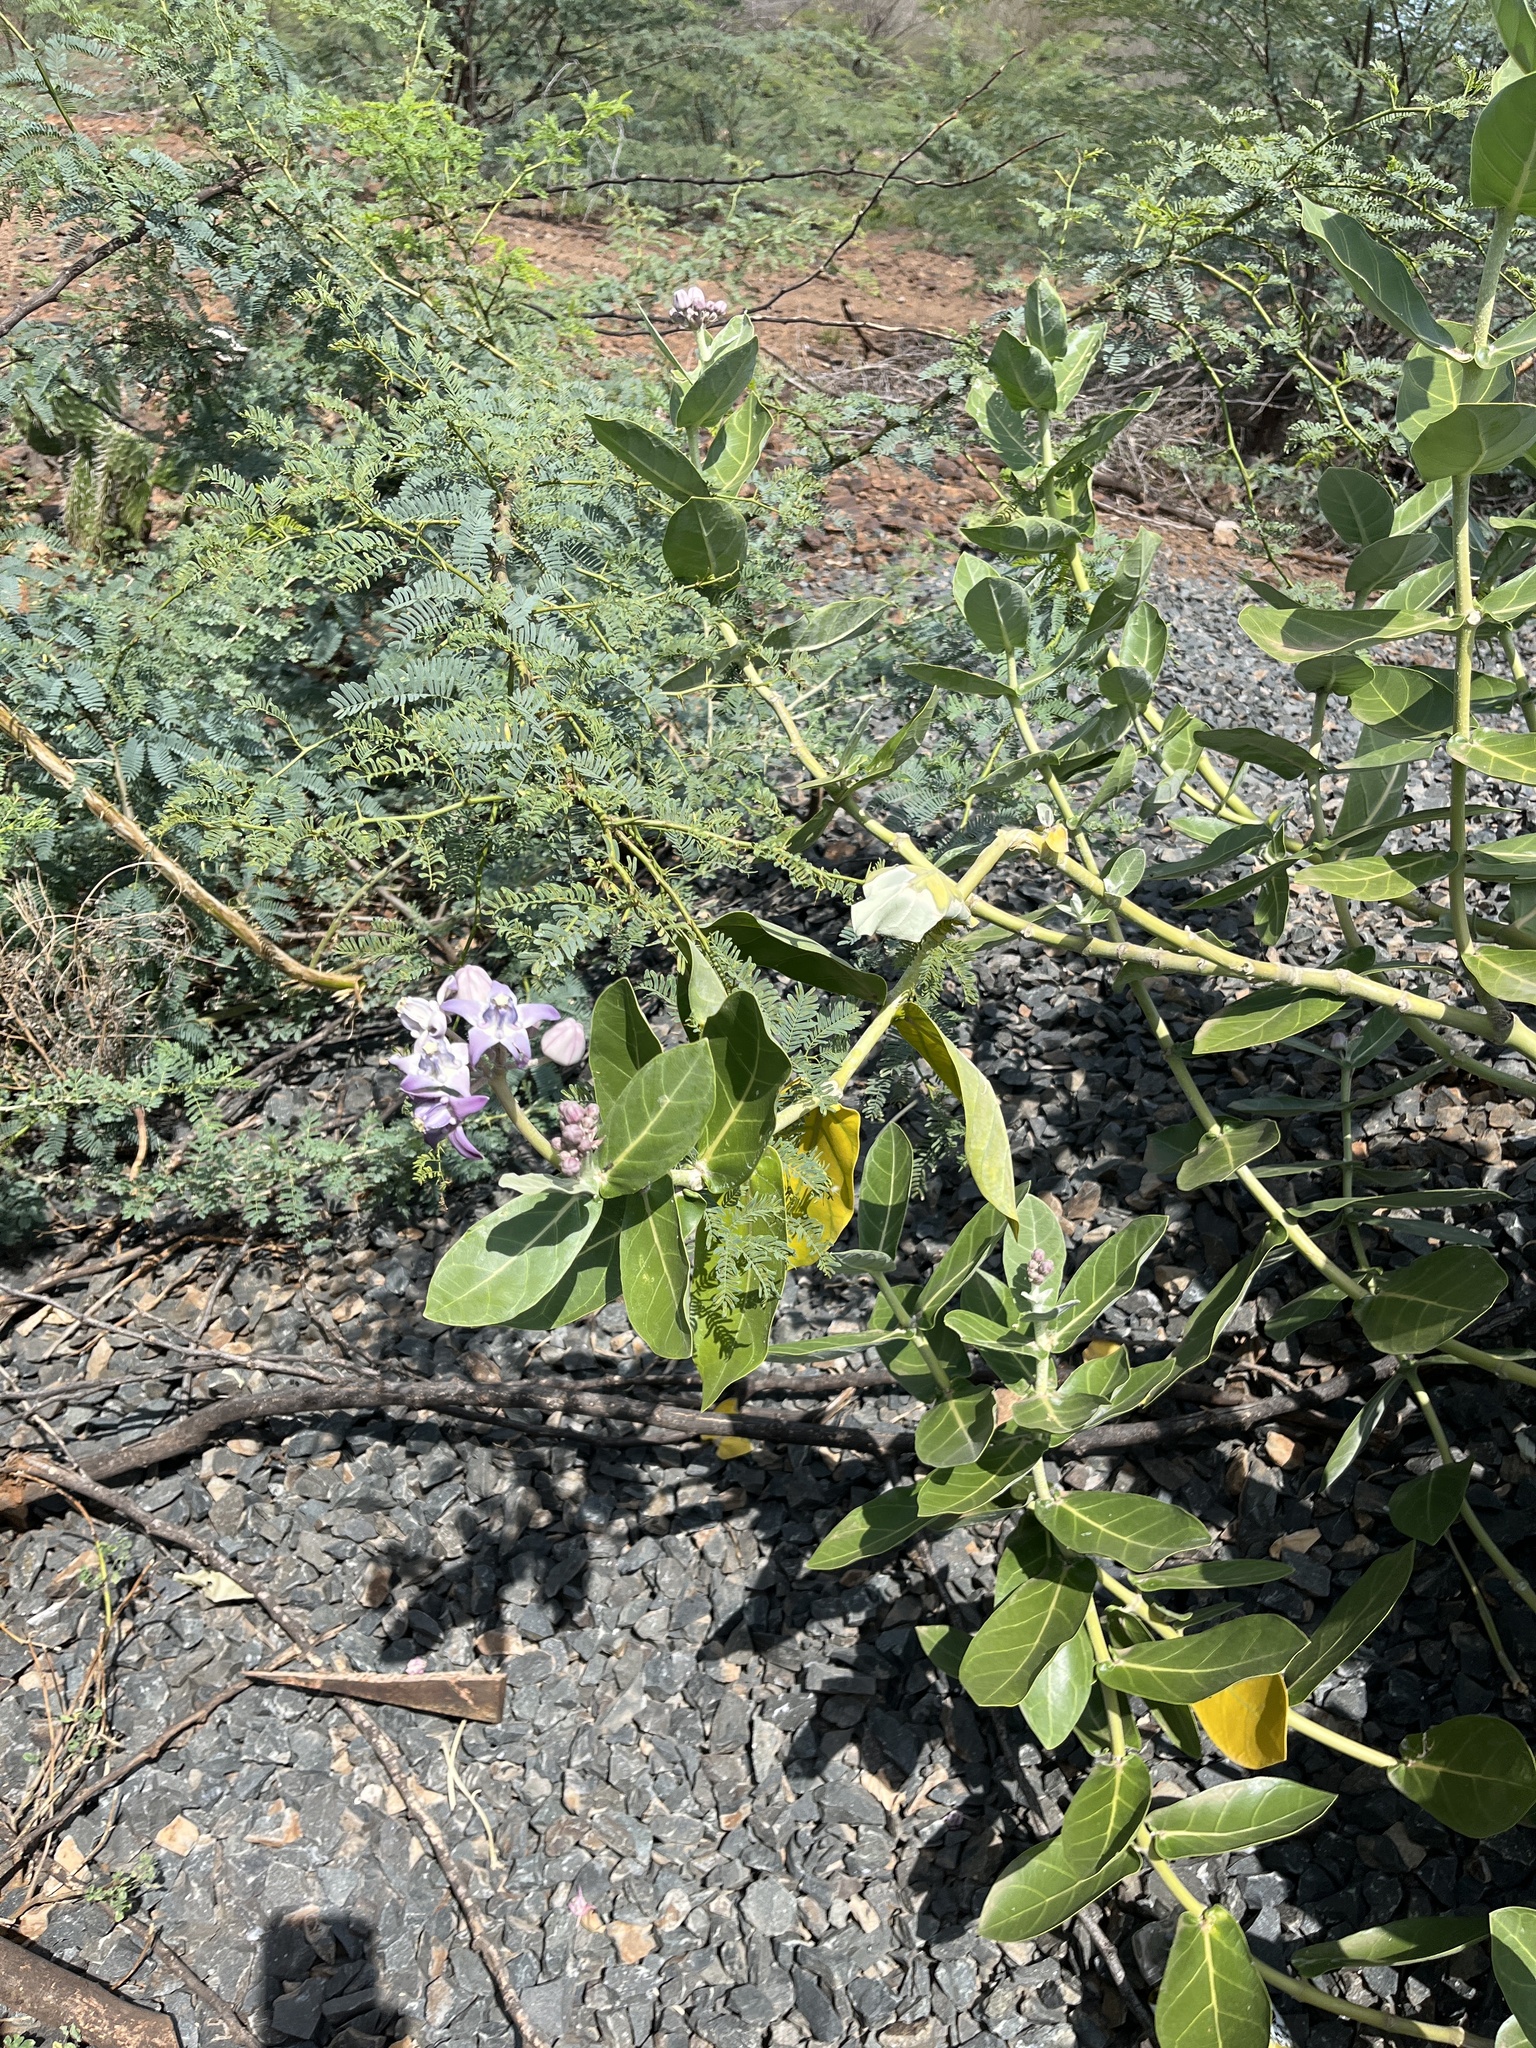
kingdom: Plantae
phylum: Tracheophyta
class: Magnoliopsida
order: Gentianales
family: Apocynaceae
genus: Calotropis
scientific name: Calotropis gigantea
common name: Crown flower
